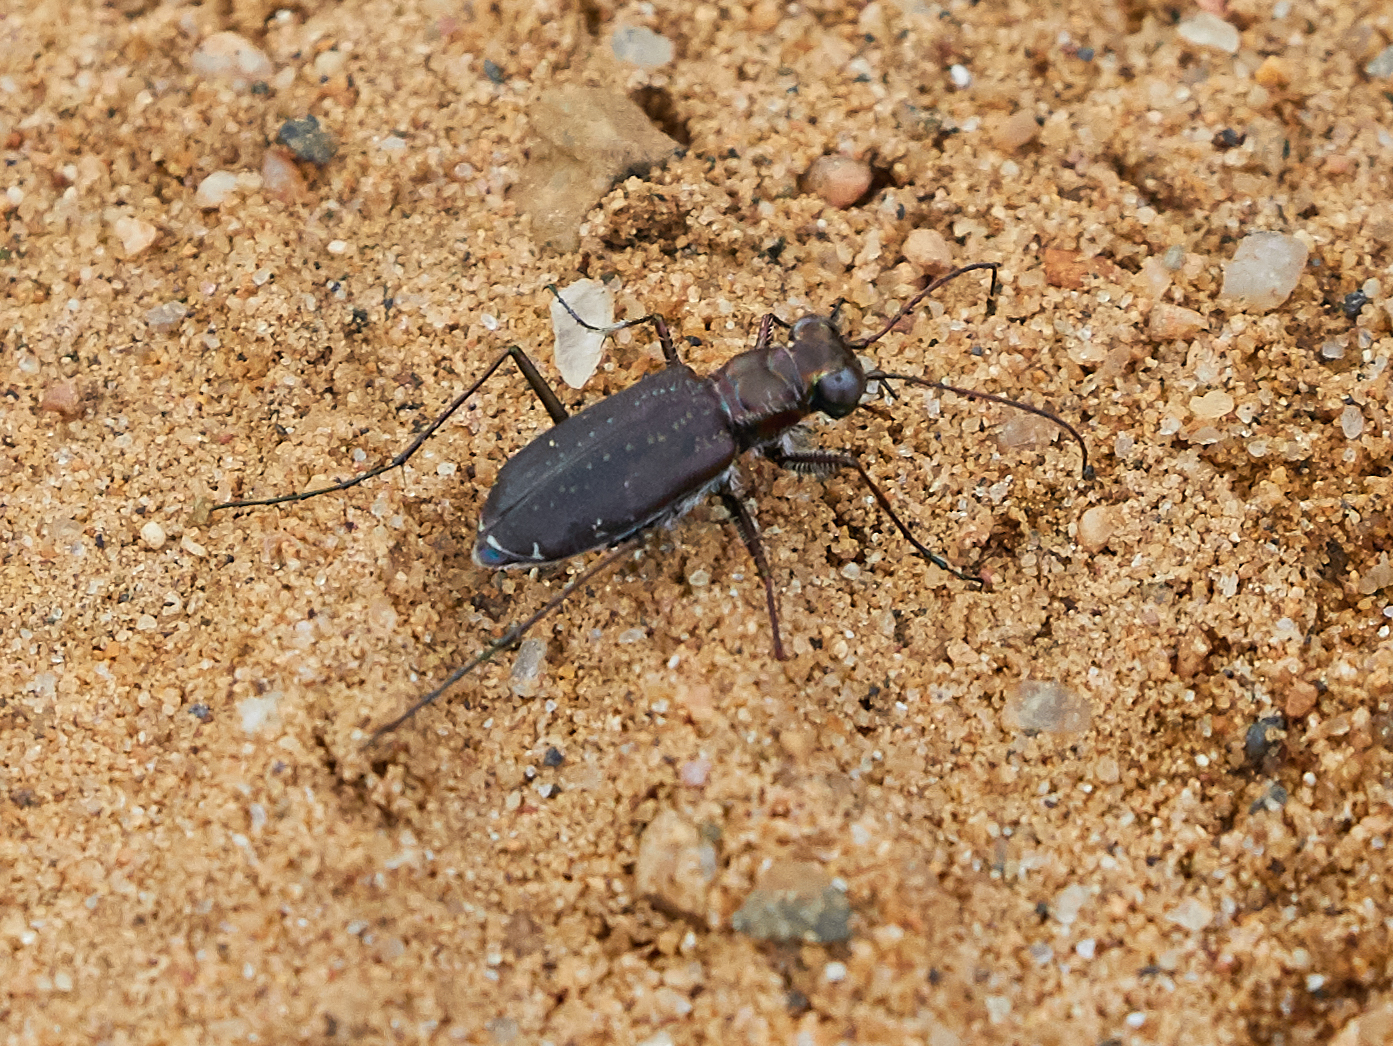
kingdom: Animalia
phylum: Arthropoda
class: Insecta
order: Coleoptera
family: Carabidae
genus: Cicindela
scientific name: Cicindela punctulata
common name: Punctured tiger beetle
